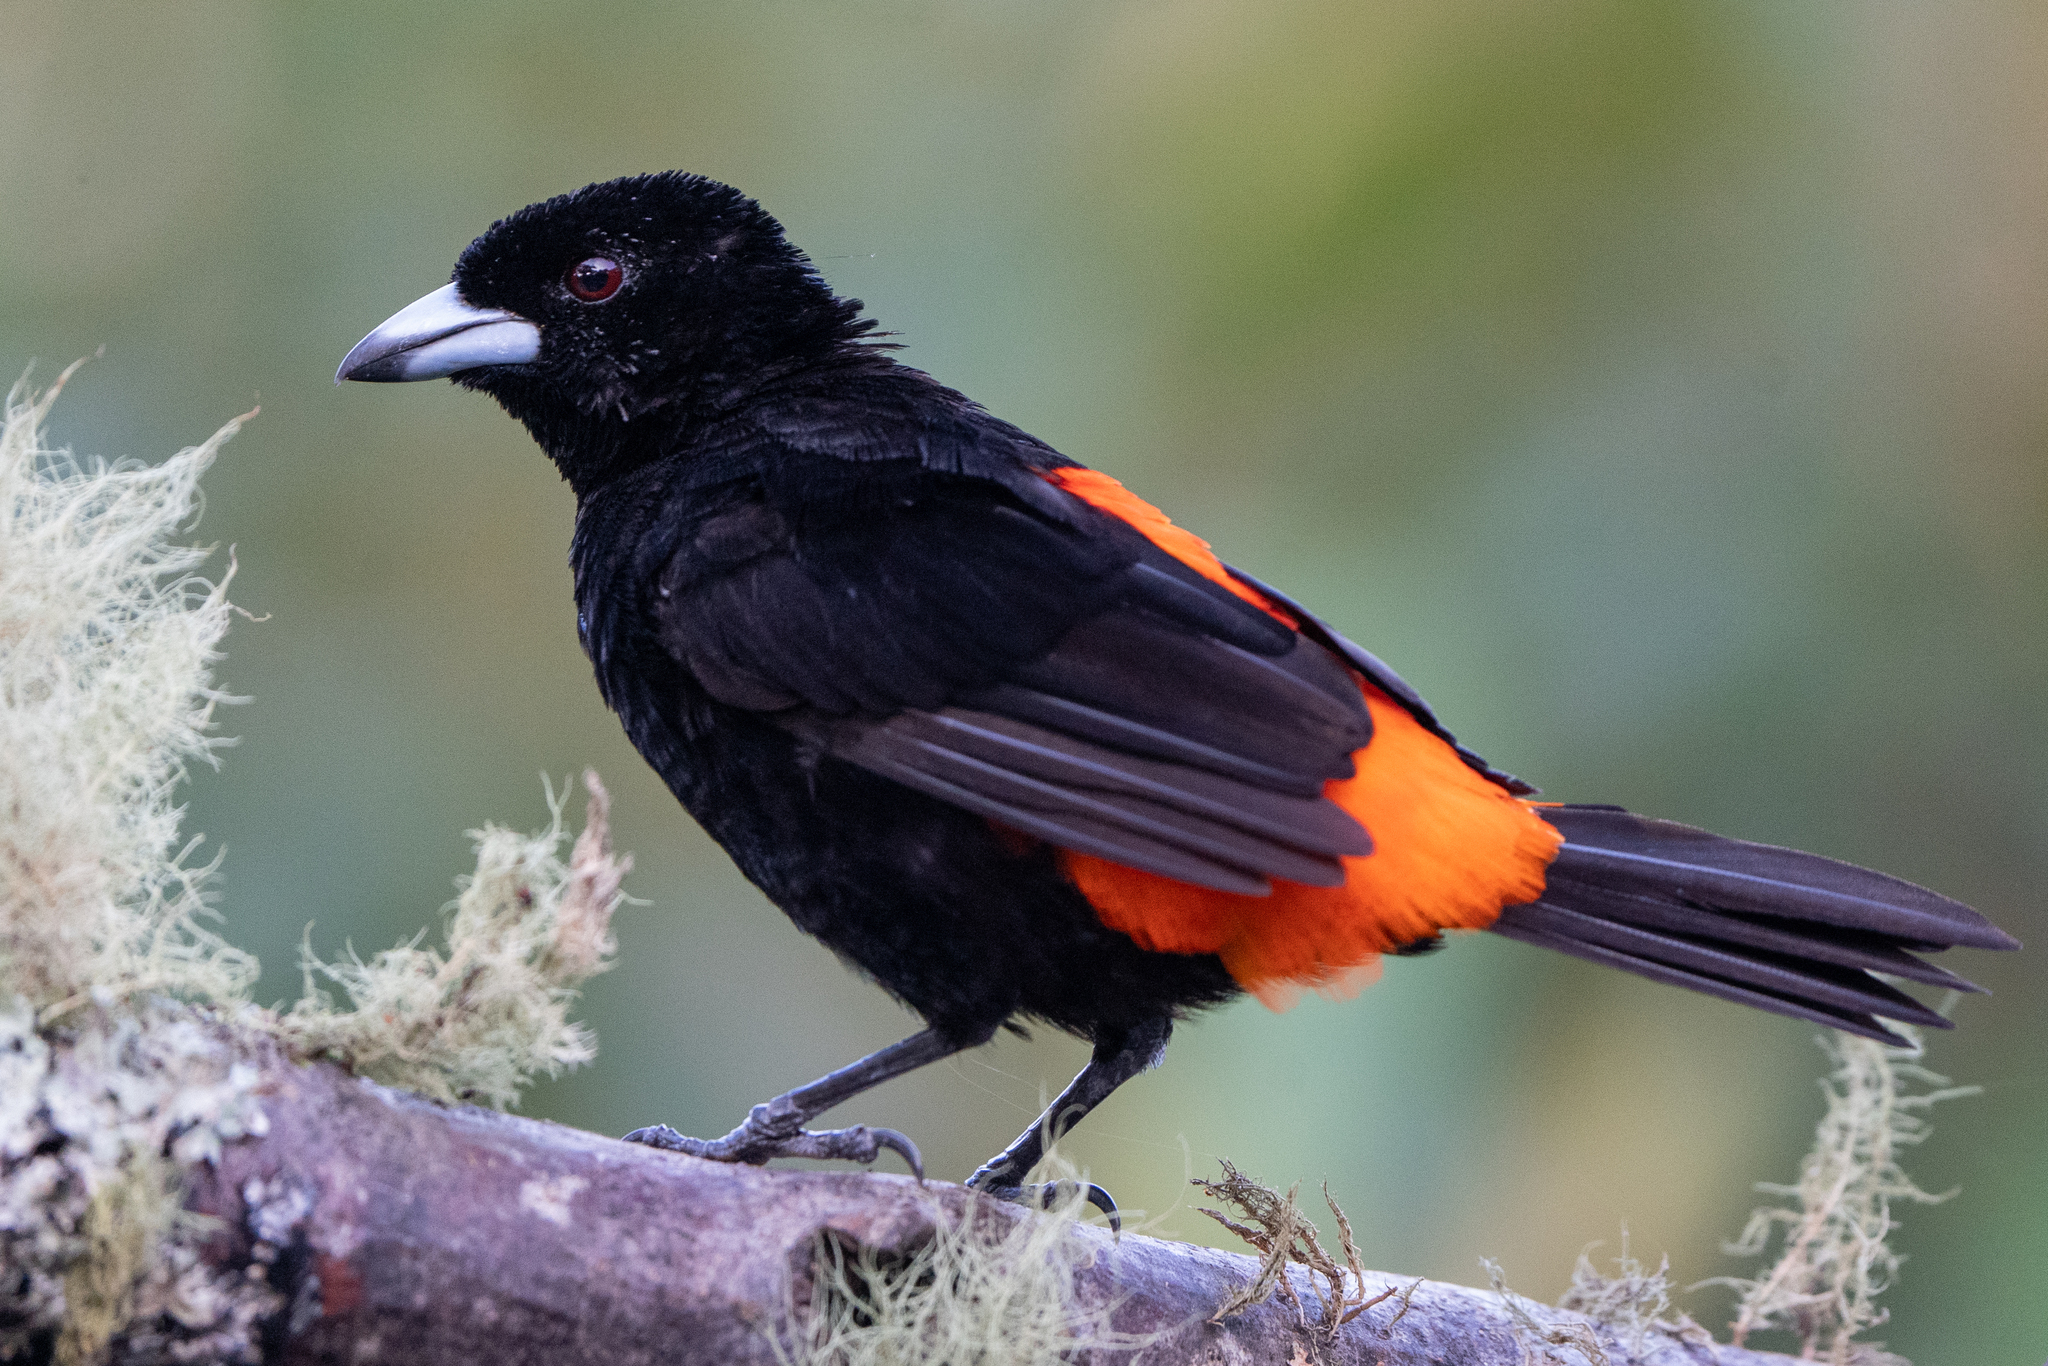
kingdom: Animalia
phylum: Chordata
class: Aves
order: Passeriformes
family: Thraupidae
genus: Ramphocelus
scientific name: Ramphocelus passerinii
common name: Passerini's tanager
